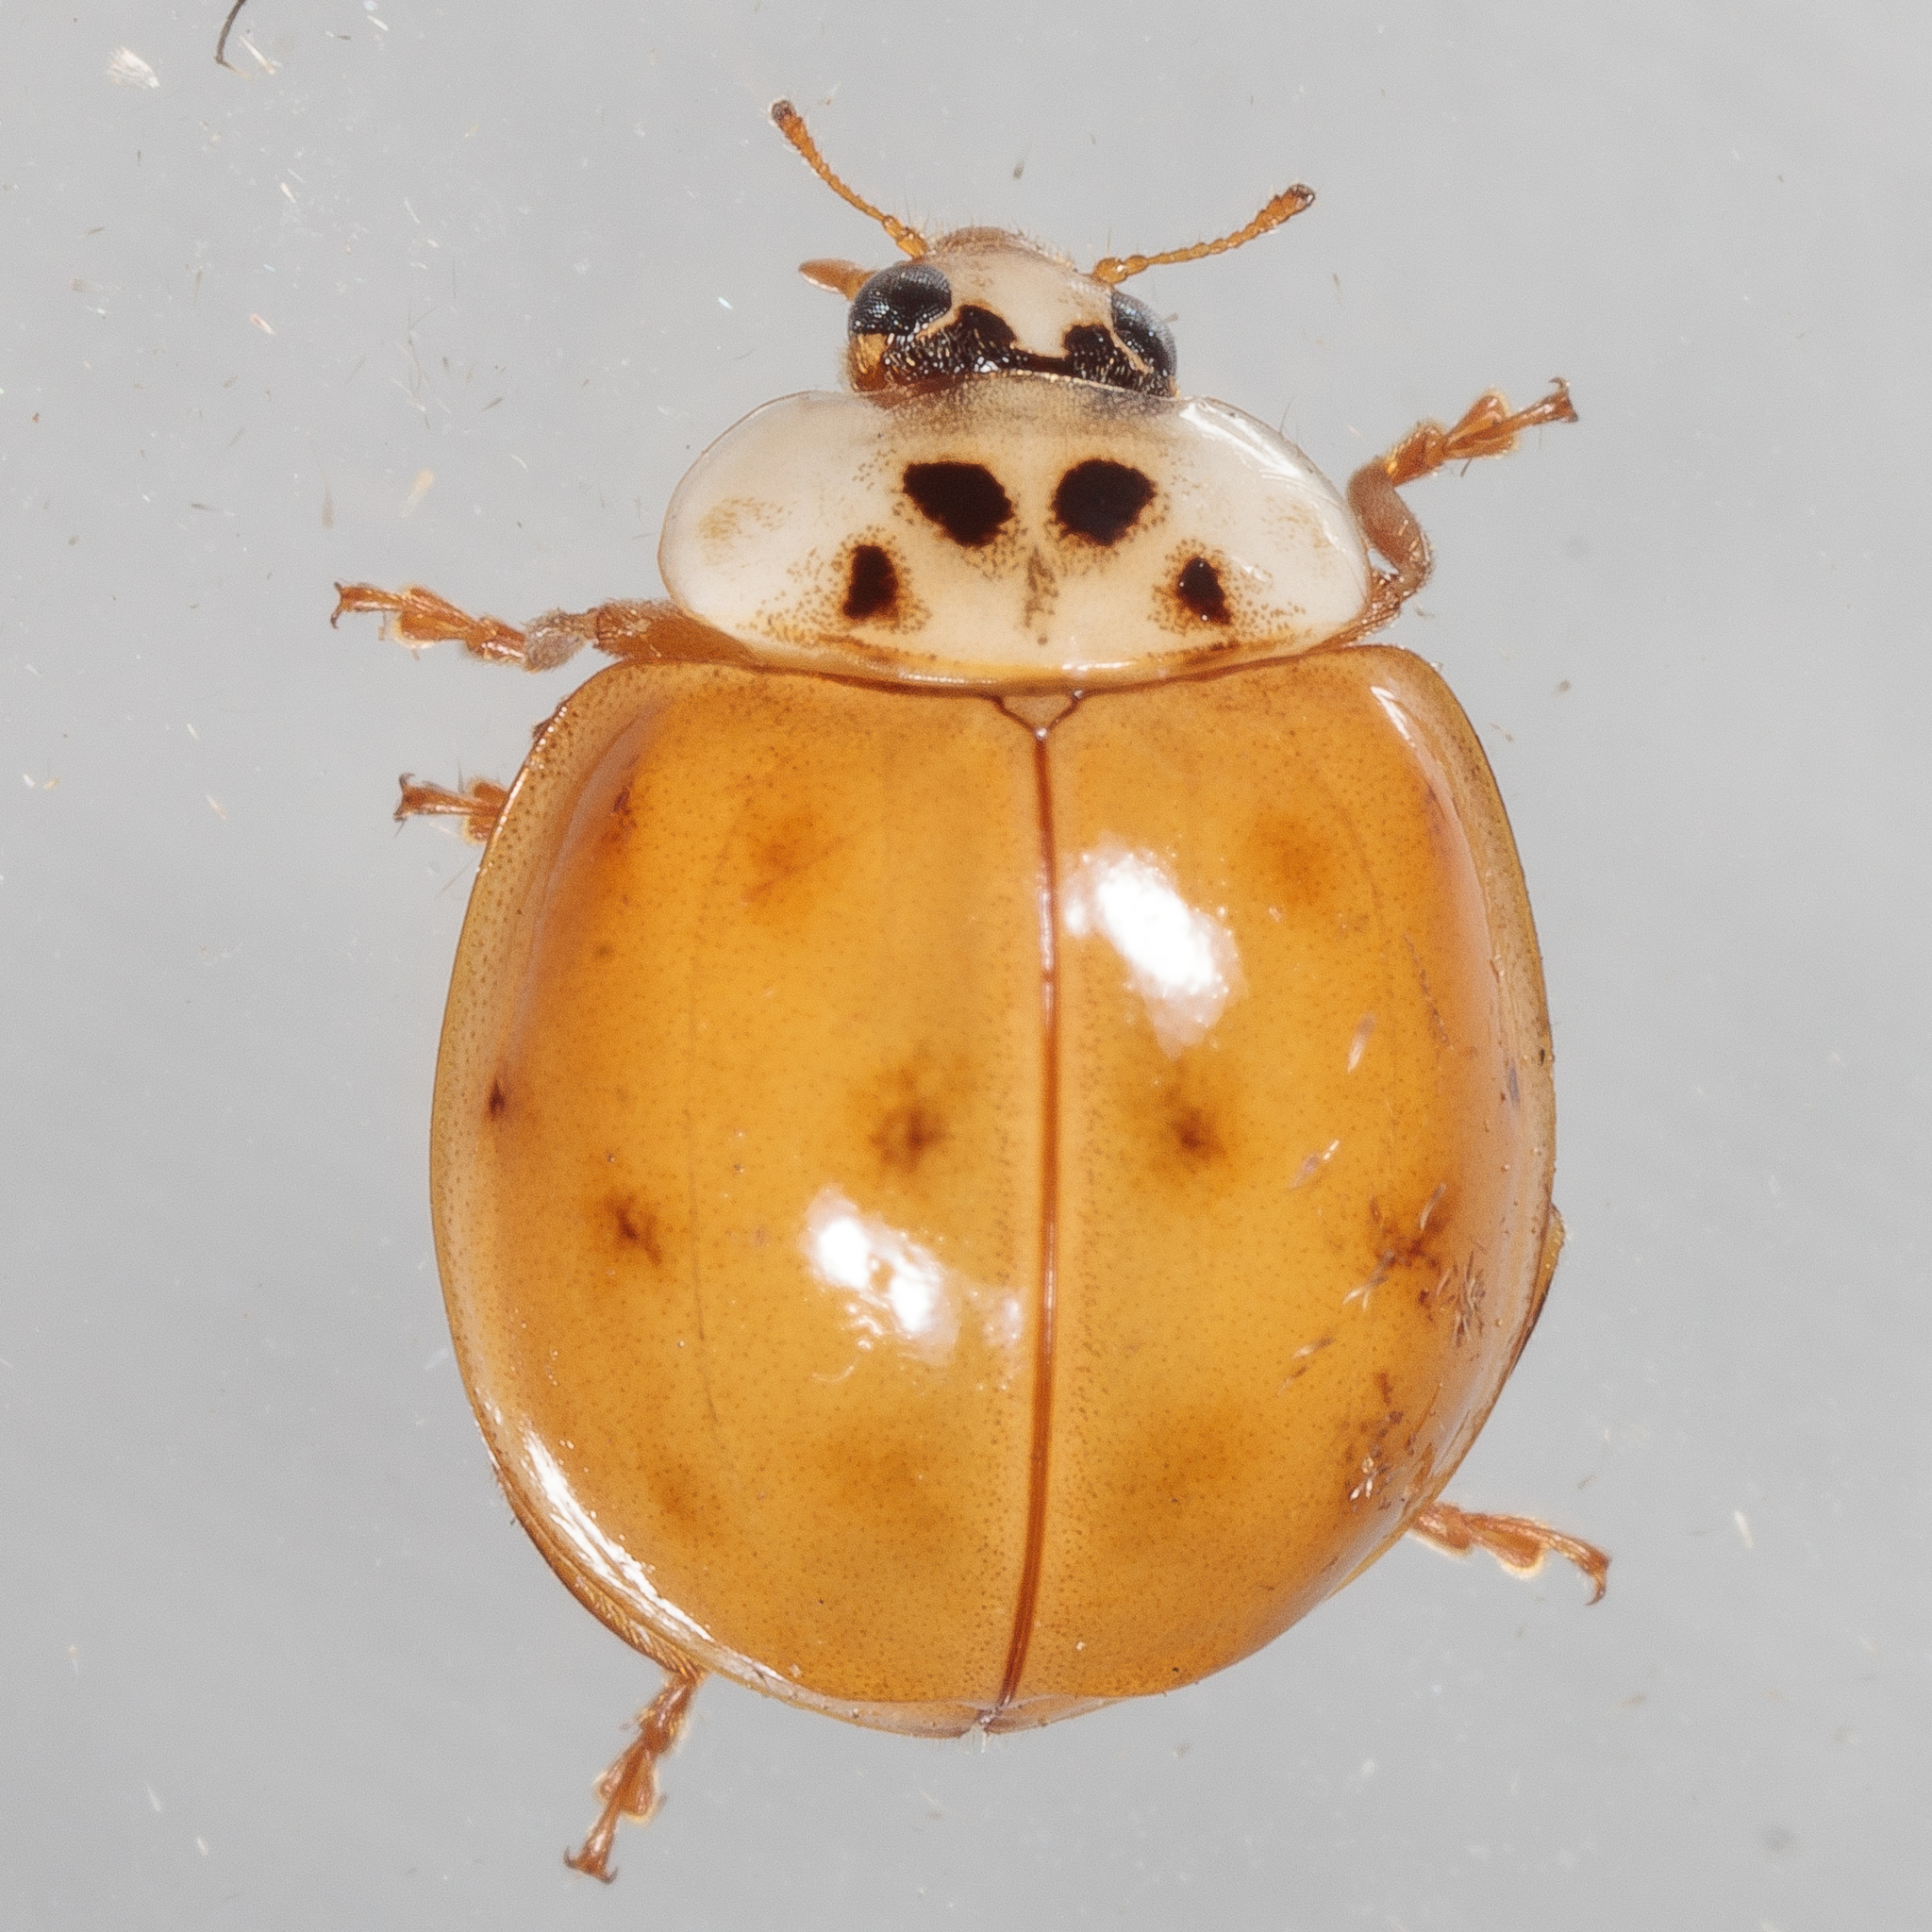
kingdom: Animalia
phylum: Arthropoda
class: Insecta
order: Coleoptera
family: Coccinellidae
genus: Harmonia
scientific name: Harmonia axyridis
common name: Harlequin ladybird
